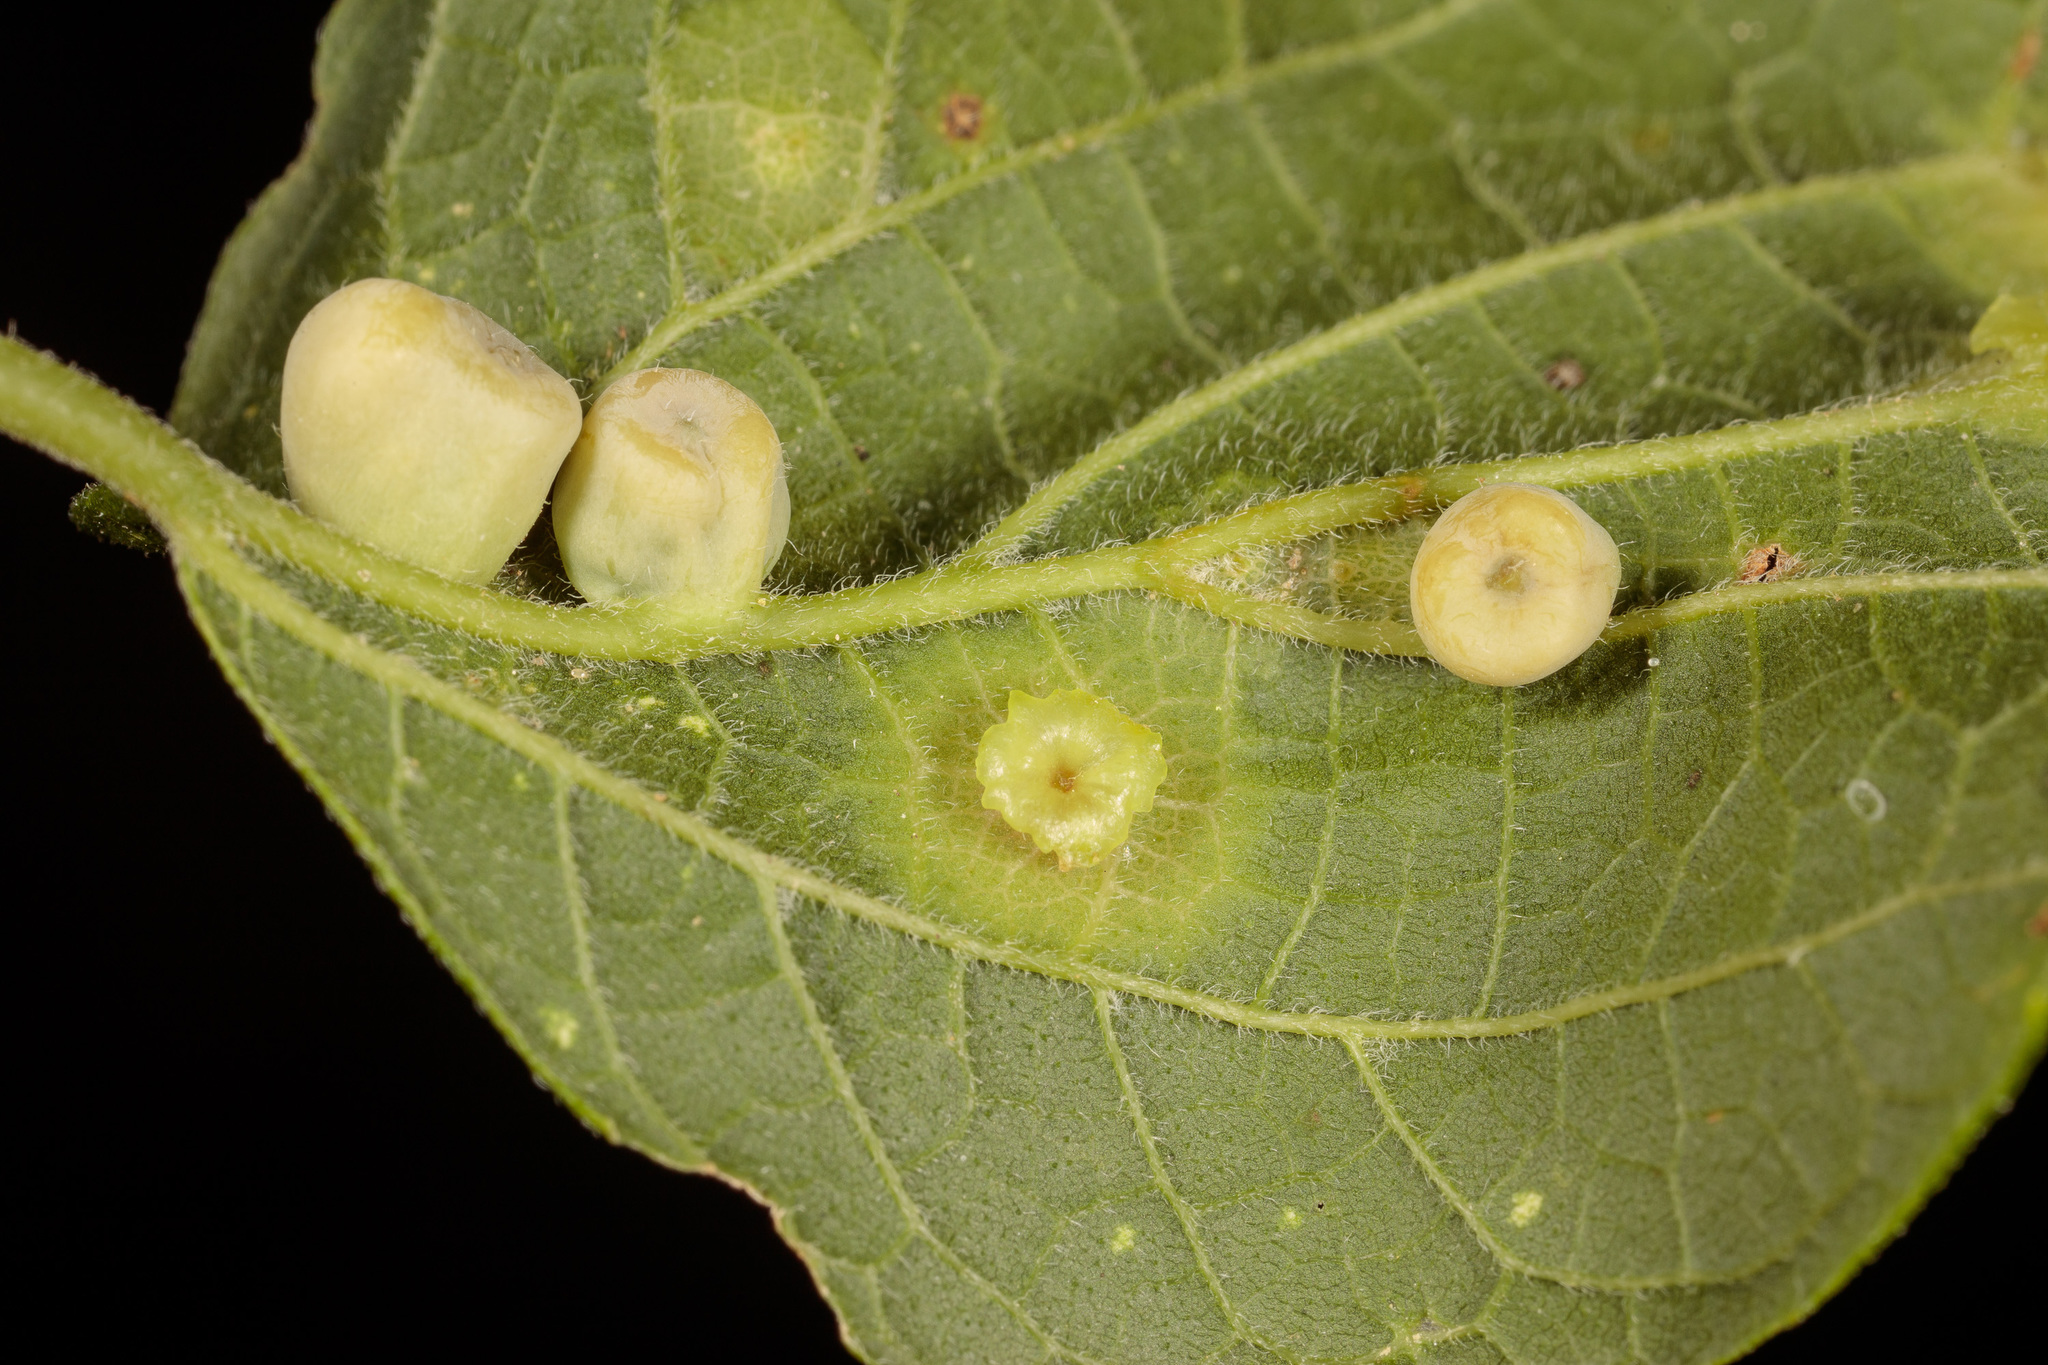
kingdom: Animalia
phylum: Arthropoda
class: Insecta
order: Hemiptera
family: Aphalaridae
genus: Pachypsylla
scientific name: Pachypsylla celtidismamma
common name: Hackberry nipplegall psyllid
